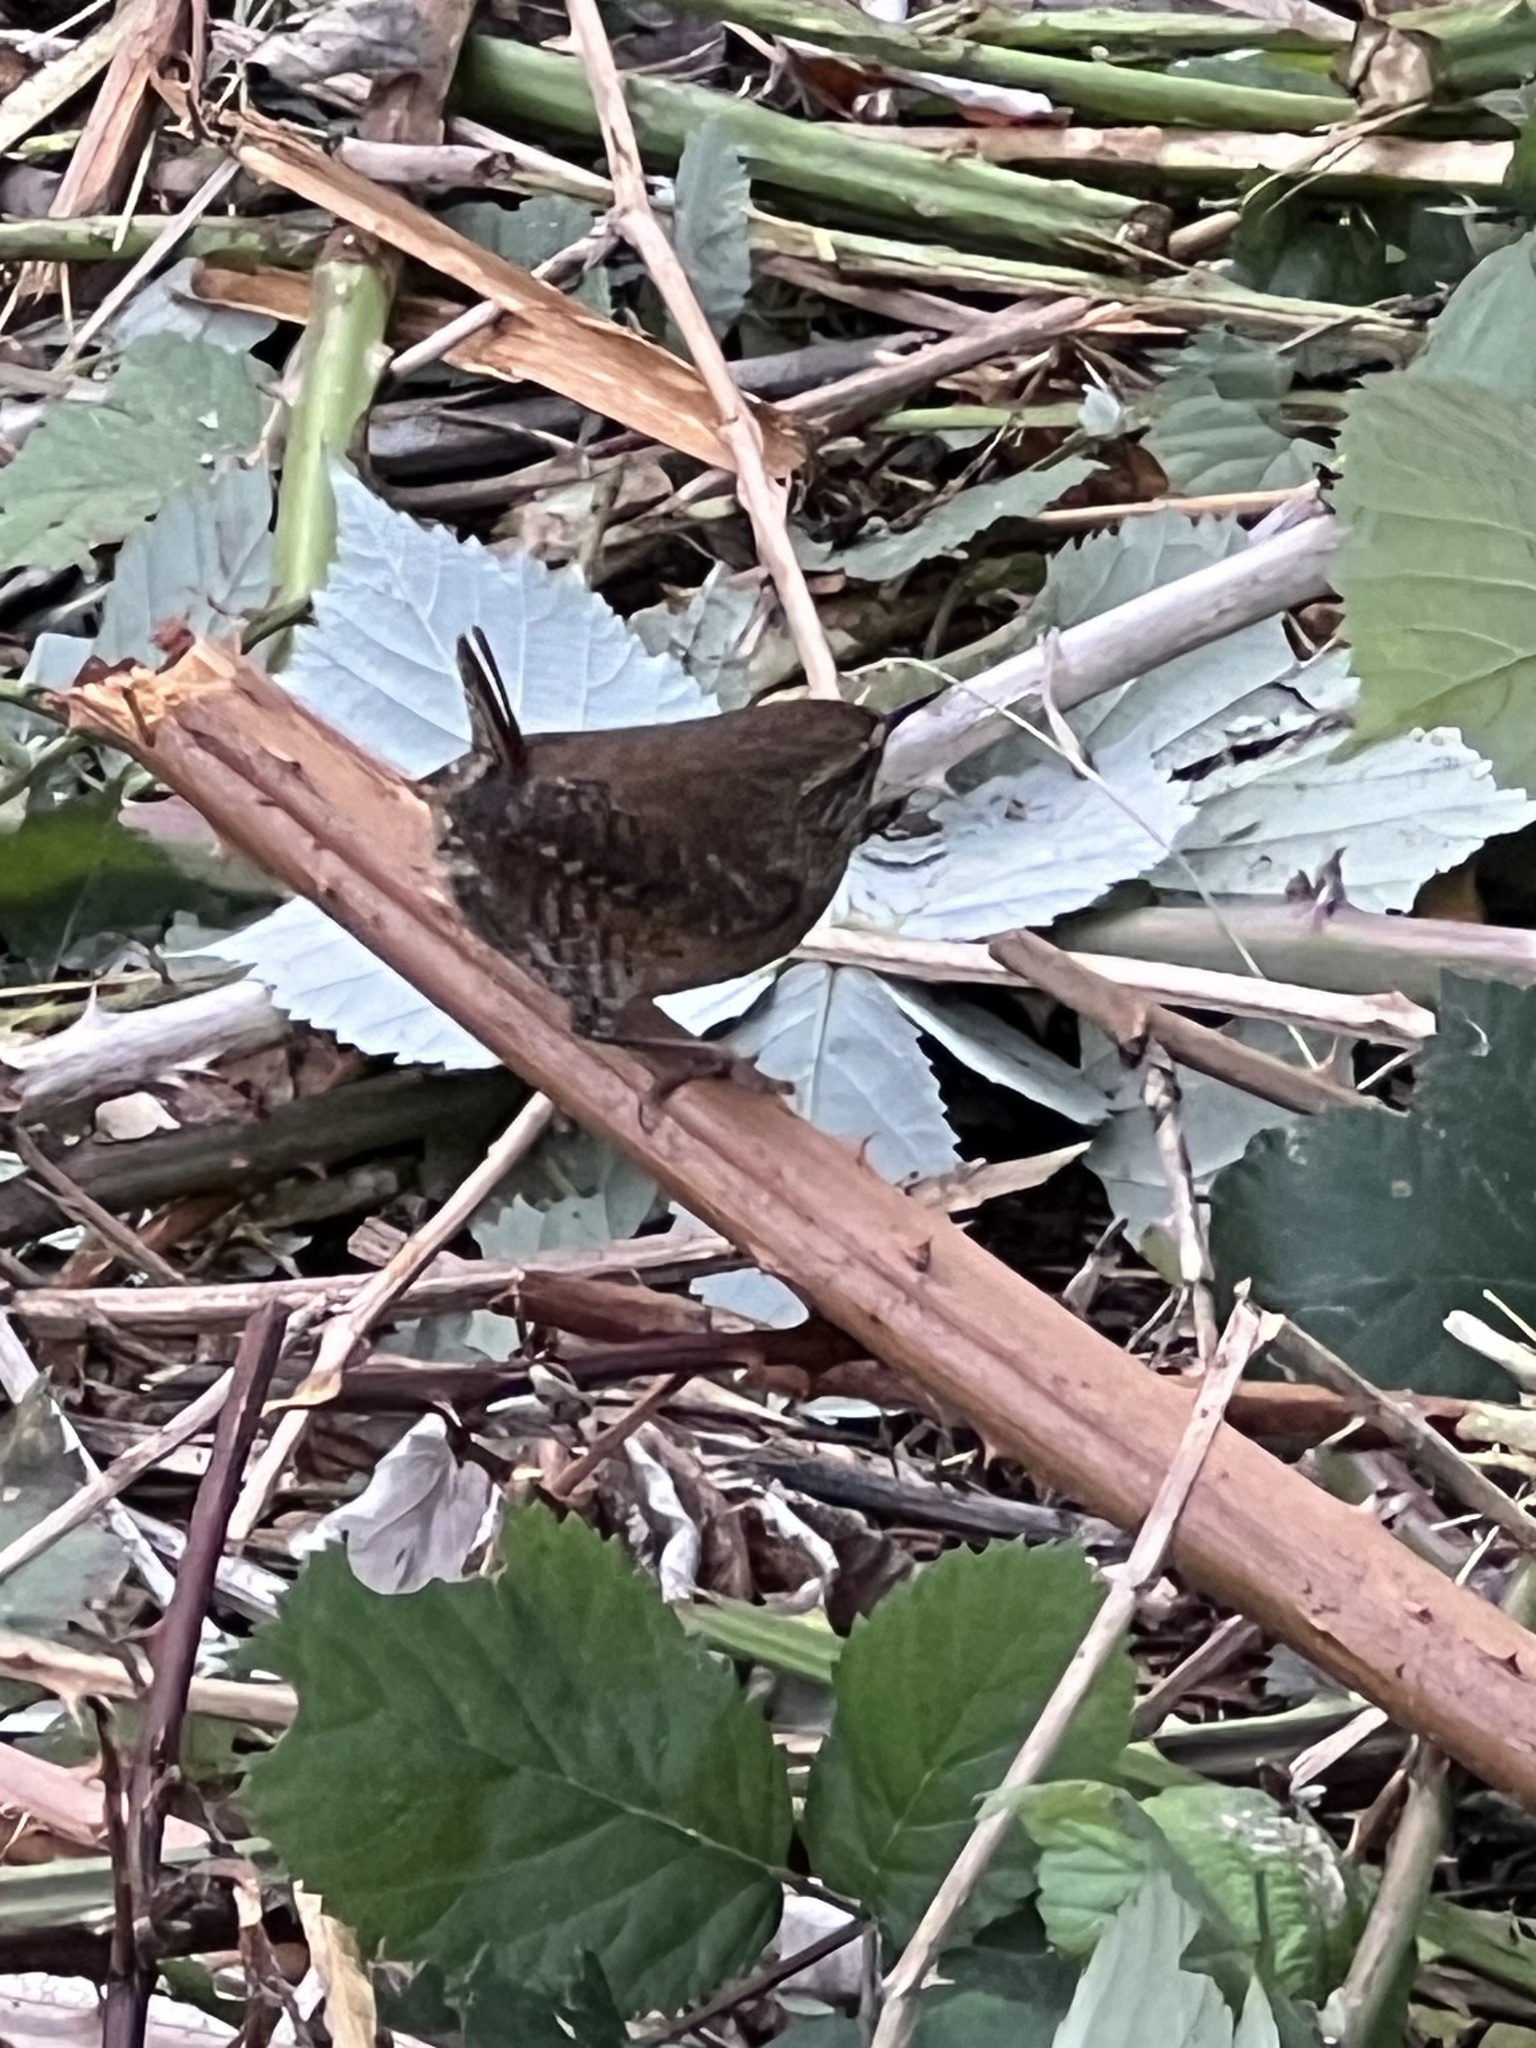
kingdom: Animalia
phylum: Chordata
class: Aves
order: Passeriformes
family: Troglodytidae
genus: Troglodytes
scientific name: Troglodytes pacificus
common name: Pacific wren
